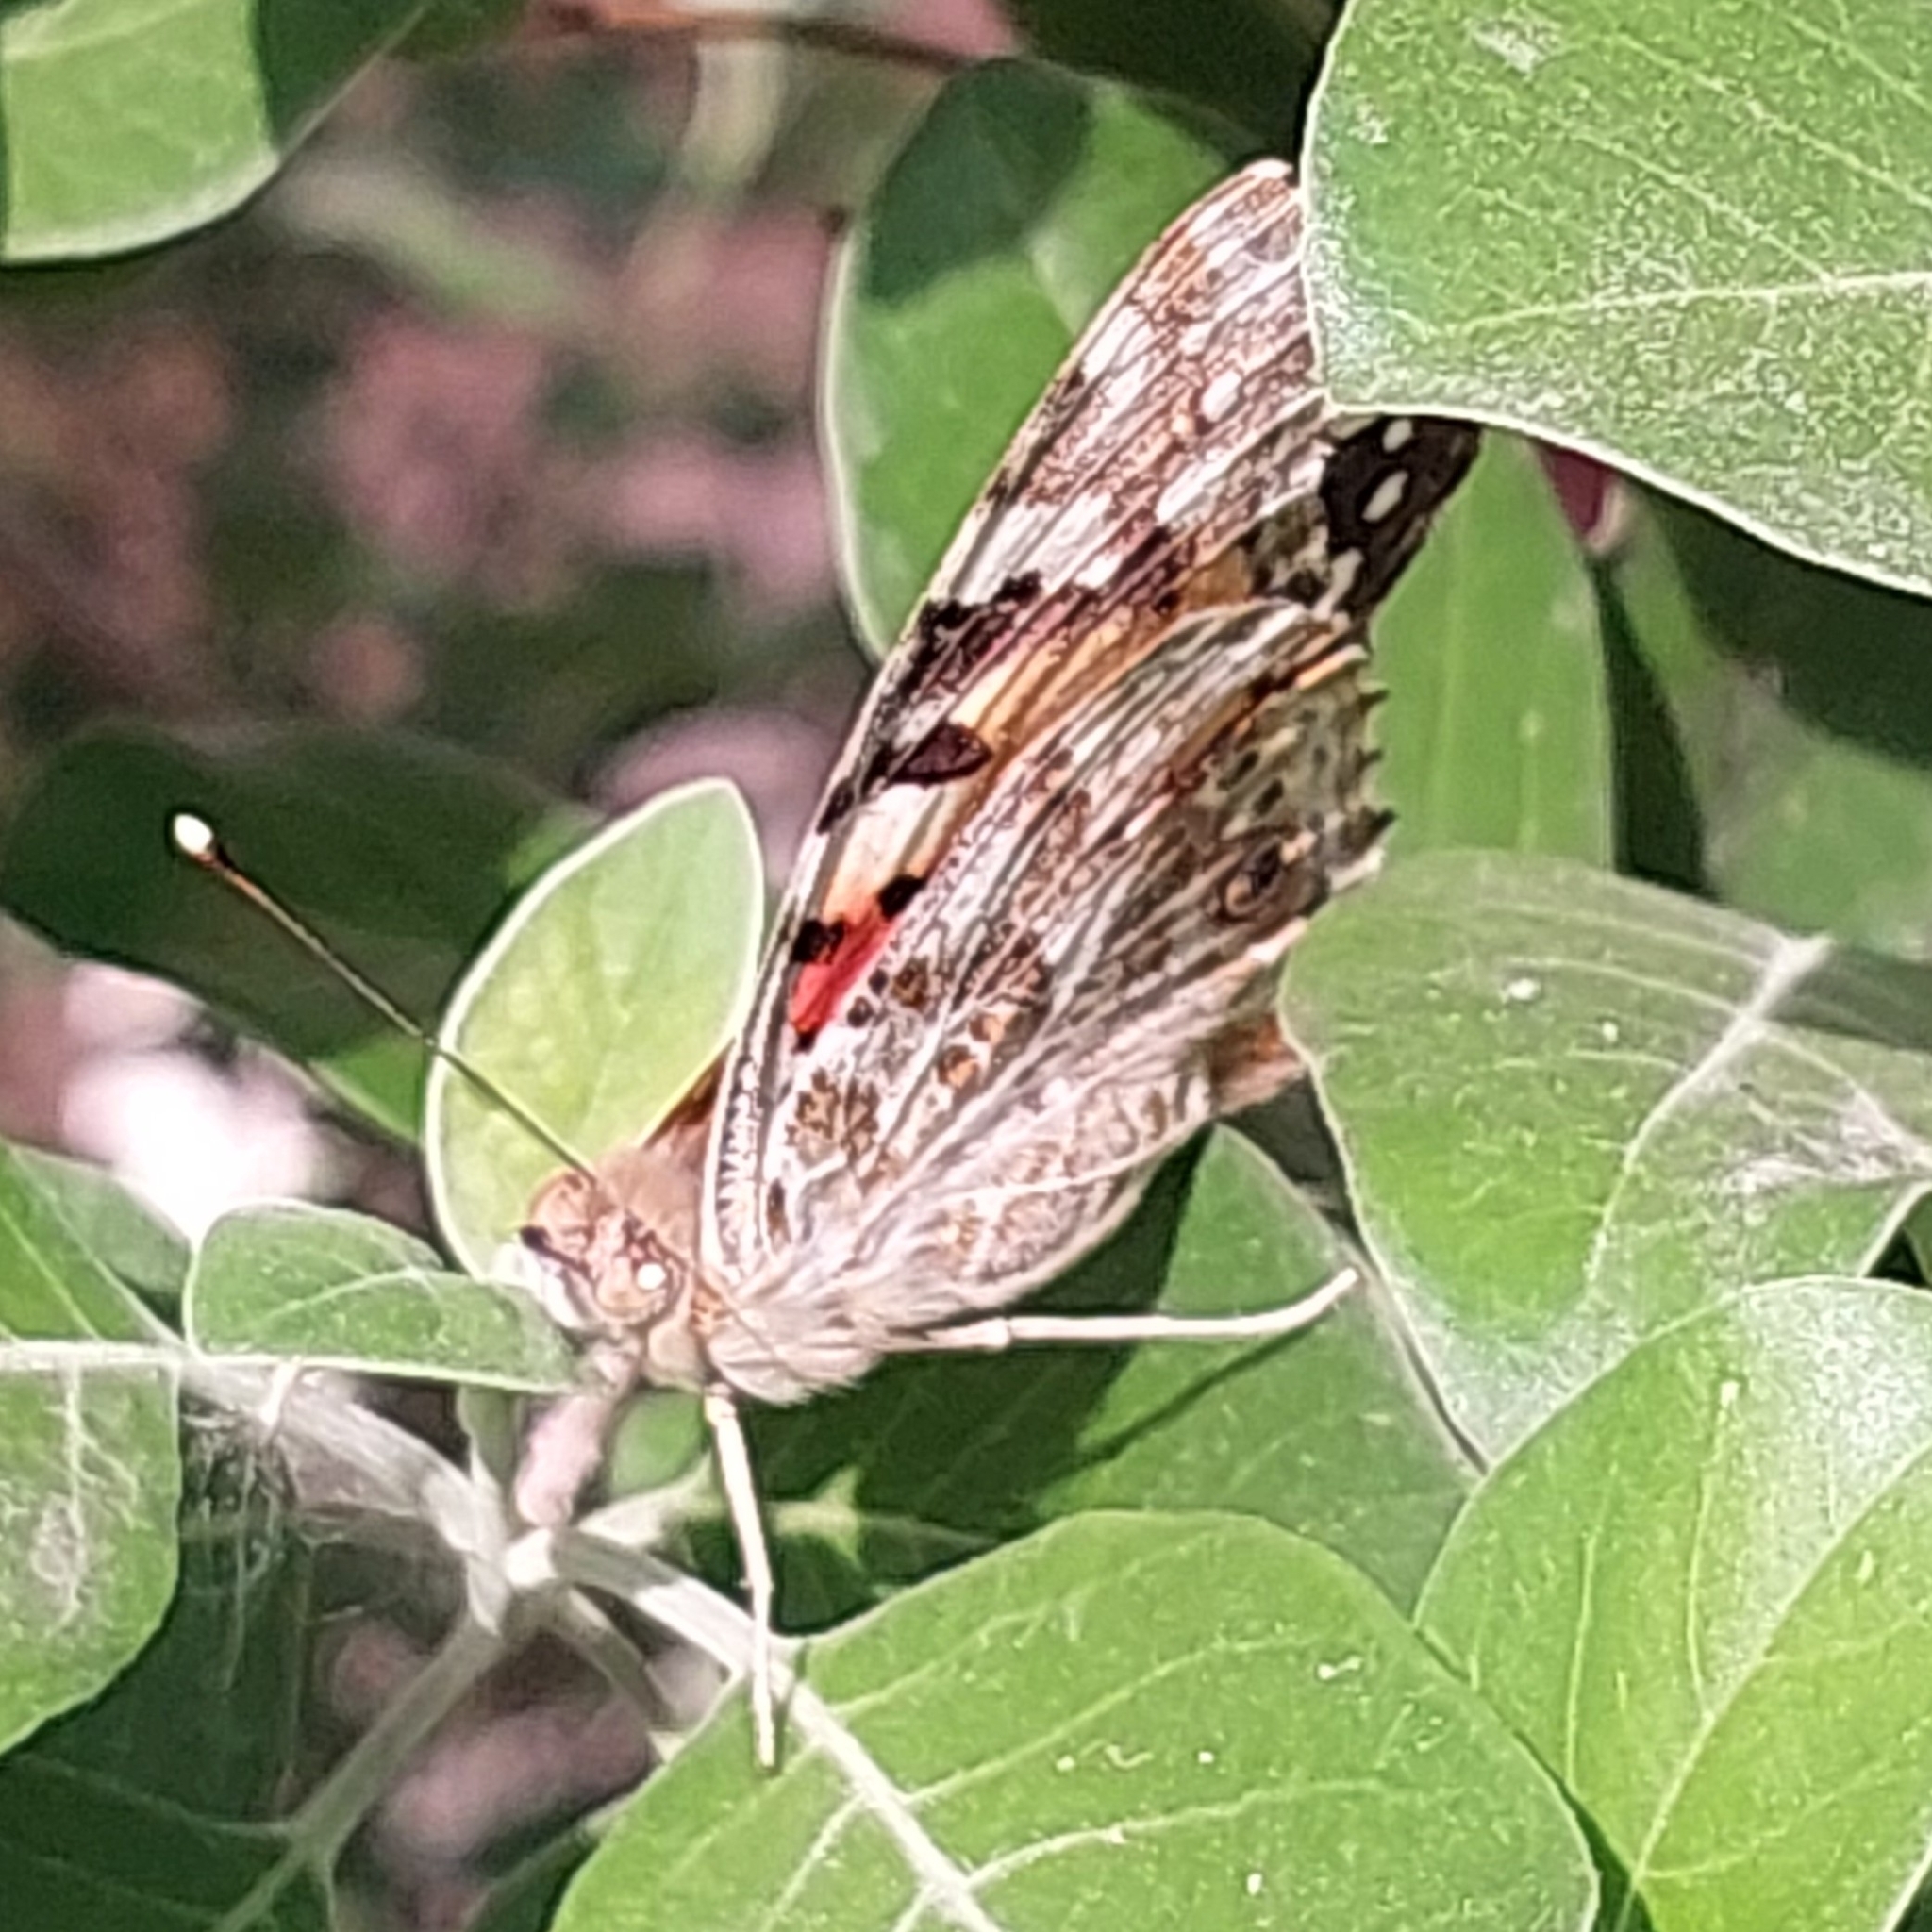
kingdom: Animalia
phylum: Arthropoda
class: Insecta
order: Lepidoptera
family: Nymphalidae
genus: Vanessa
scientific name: Vanessa cardui
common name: Painted lady
